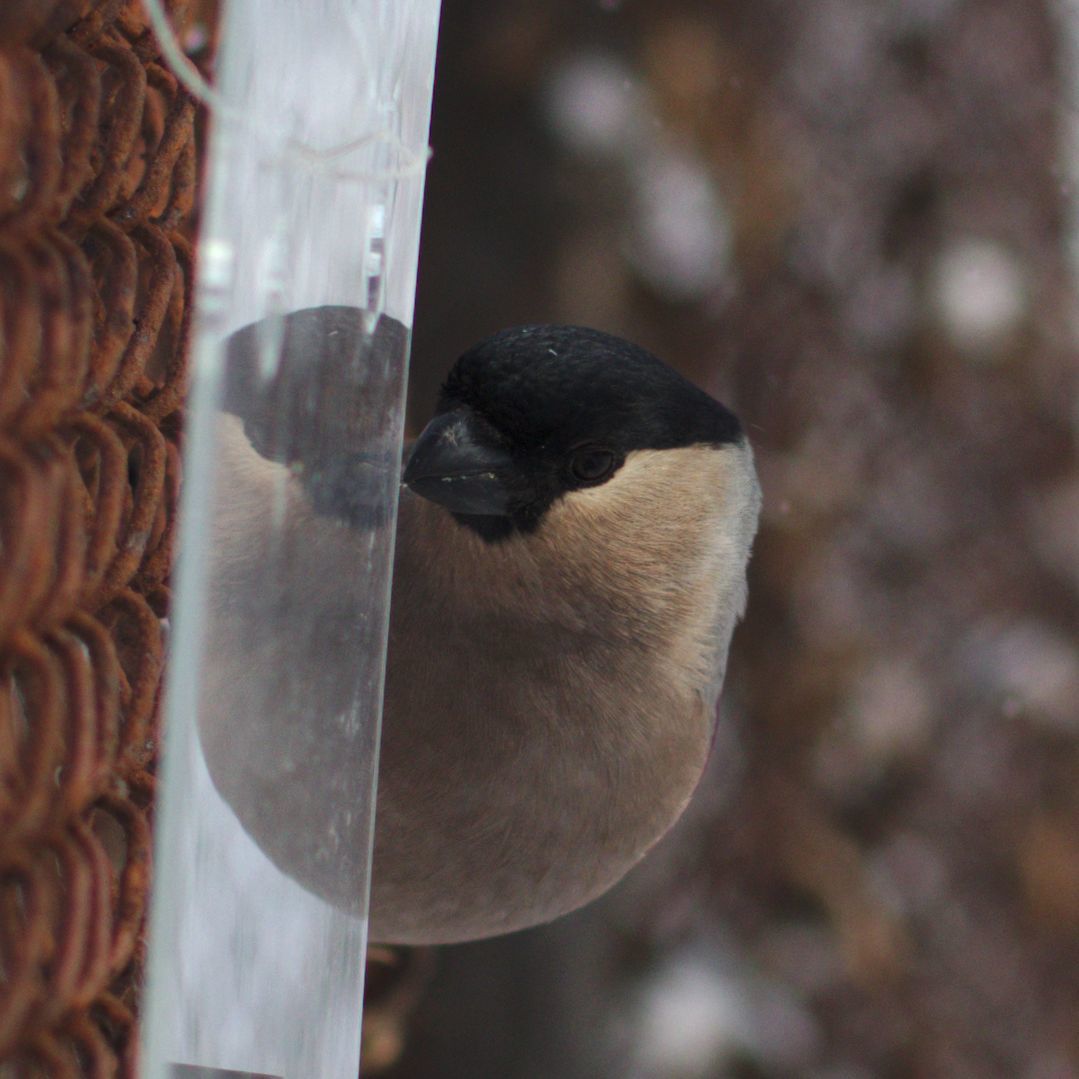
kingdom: Animalia
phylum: Chordata
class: Aves
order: Passeriformes
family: Fringillidae
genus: Pyrrhula
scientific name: Pyrrhula pyrrhula
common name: Eurasian bullfinch
